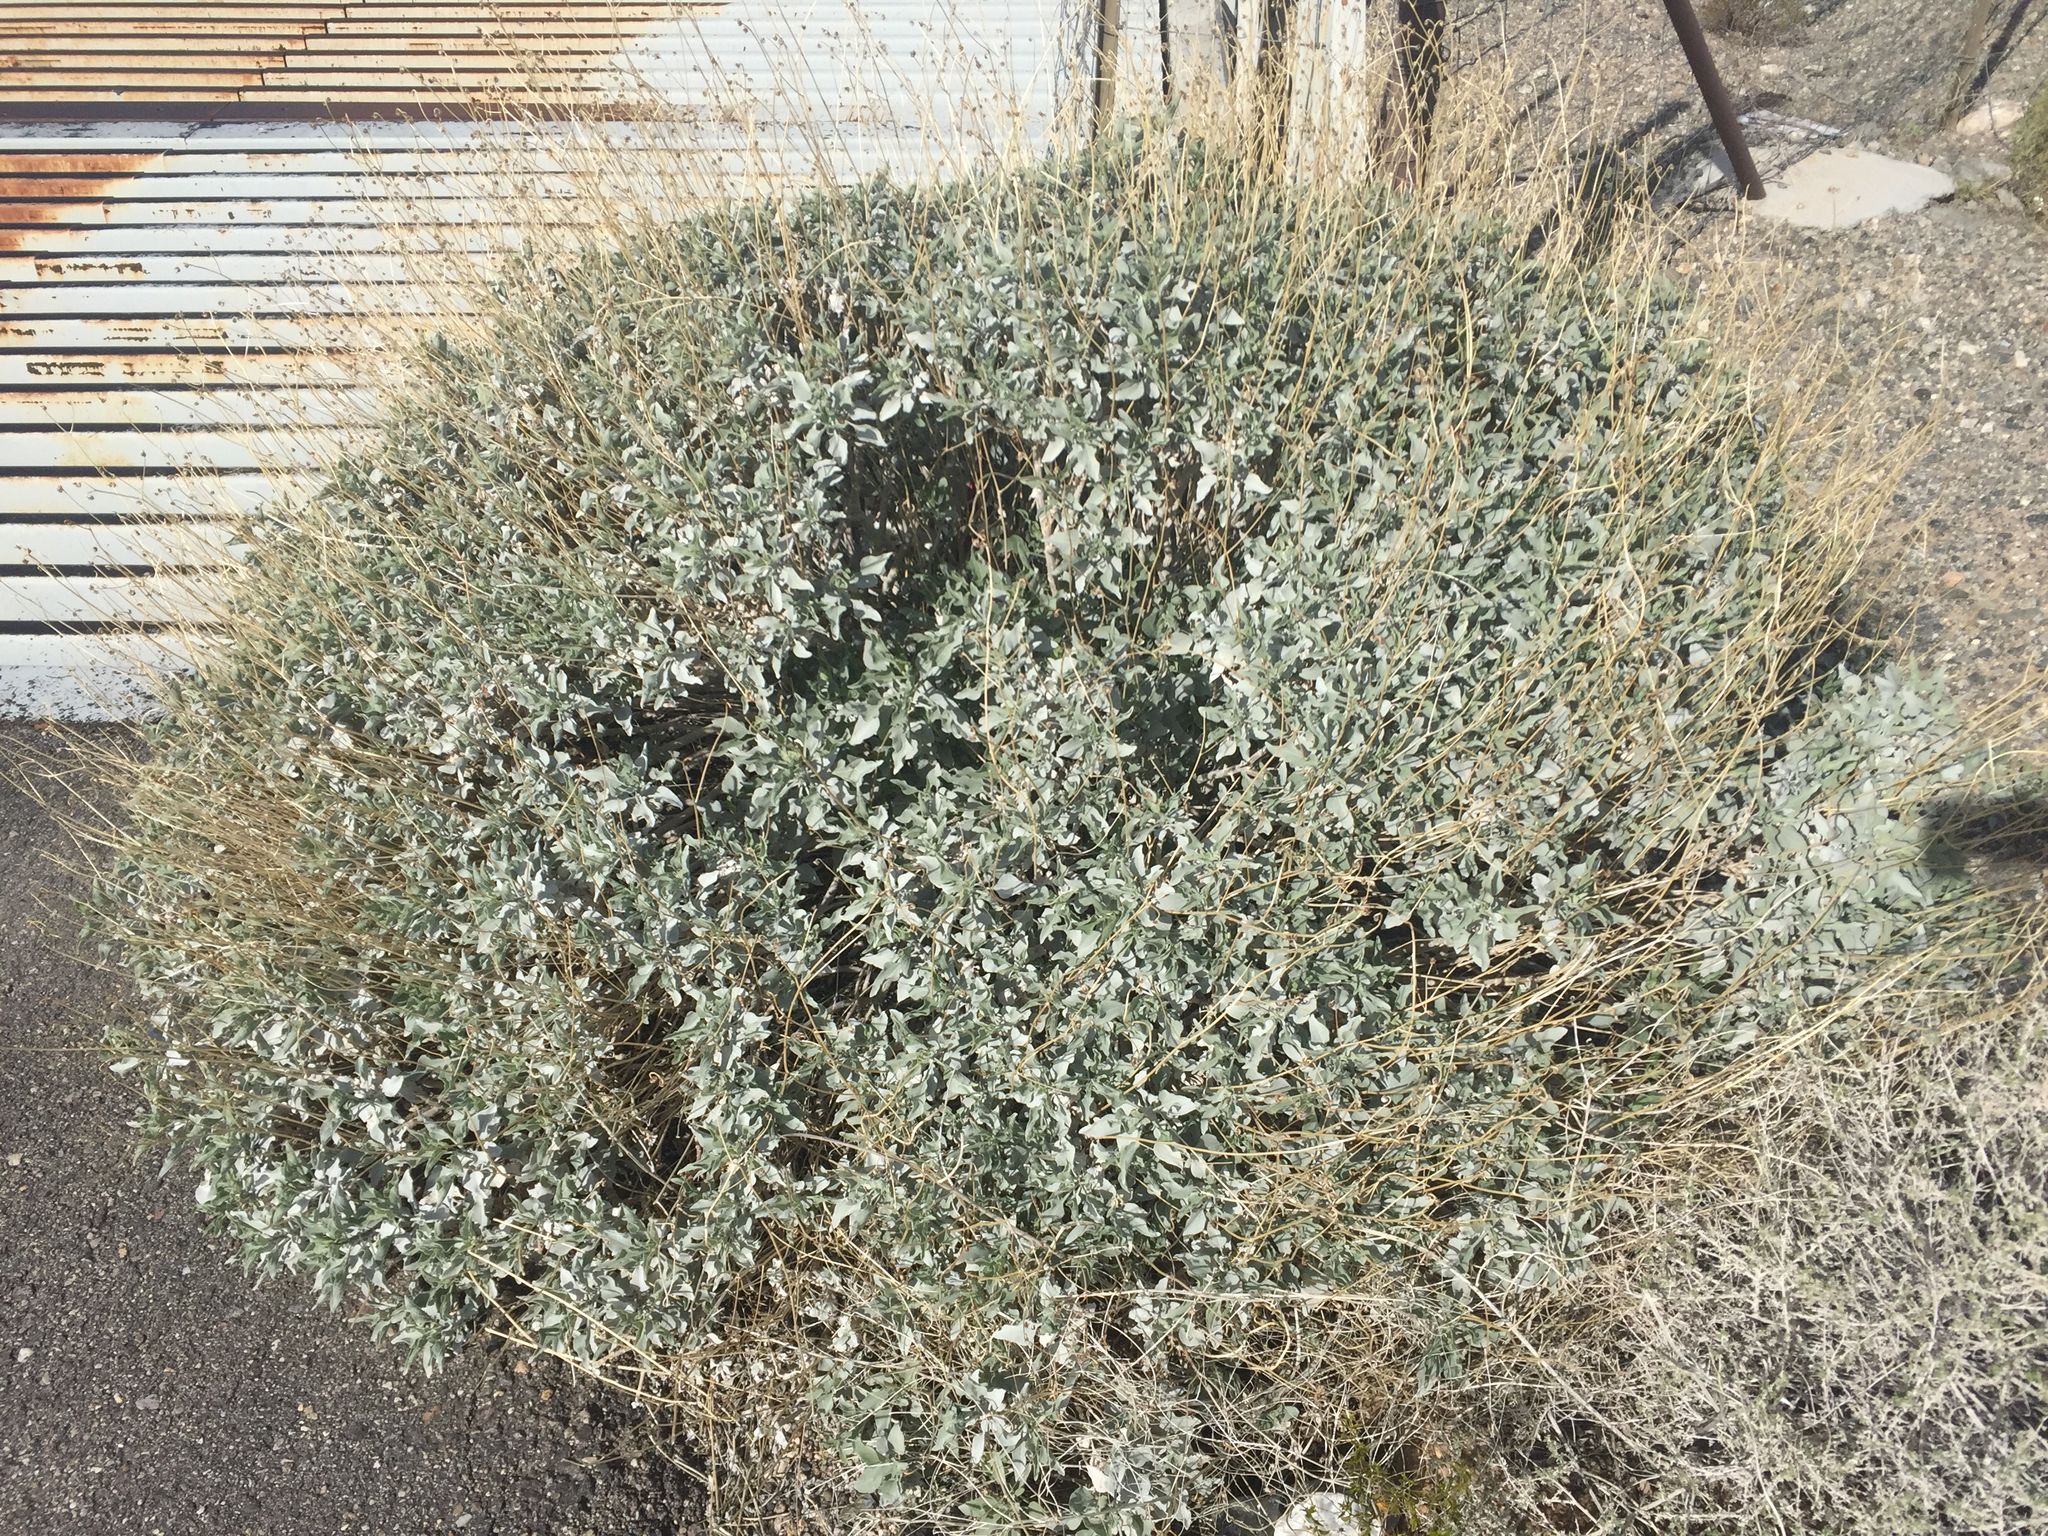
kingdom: Plantae
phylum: Tracheophyta
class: Magnoliopsida
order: Asterales
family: Asteraceae
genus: Encelia
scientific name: Encelia farinosa
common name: Brittlebush
